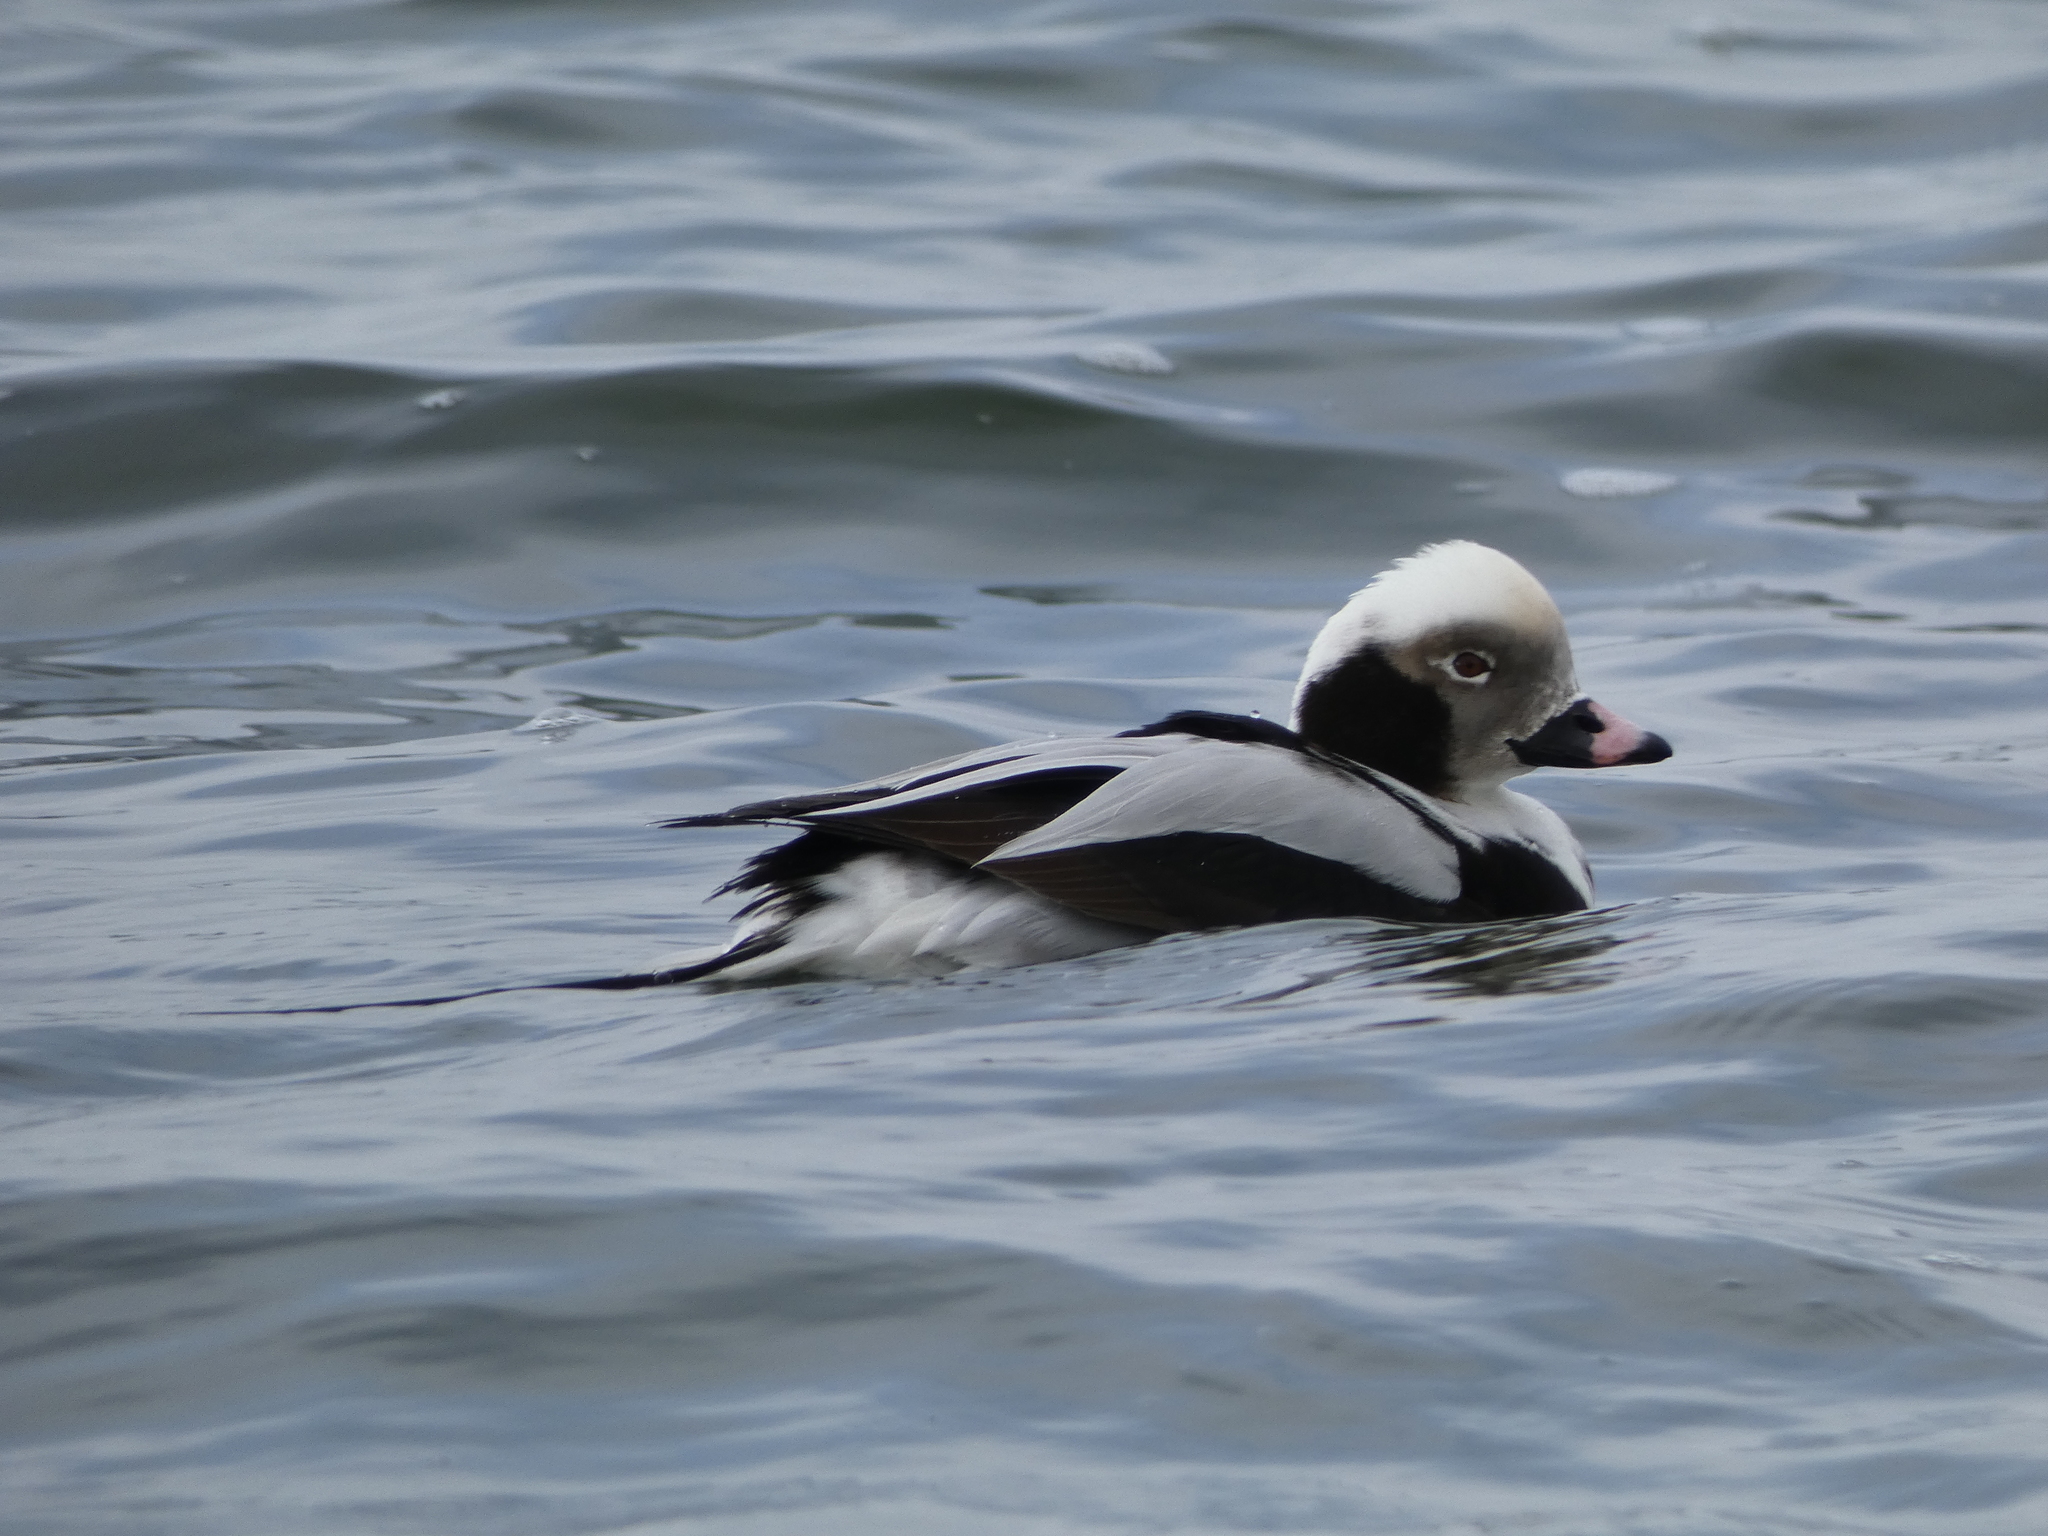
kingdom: Animalia
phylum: Chordata
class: Aves
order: Anseriformes
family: Anatidae
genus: Clangula
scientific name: Clangula hyemalis
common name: Long-tailed duck
